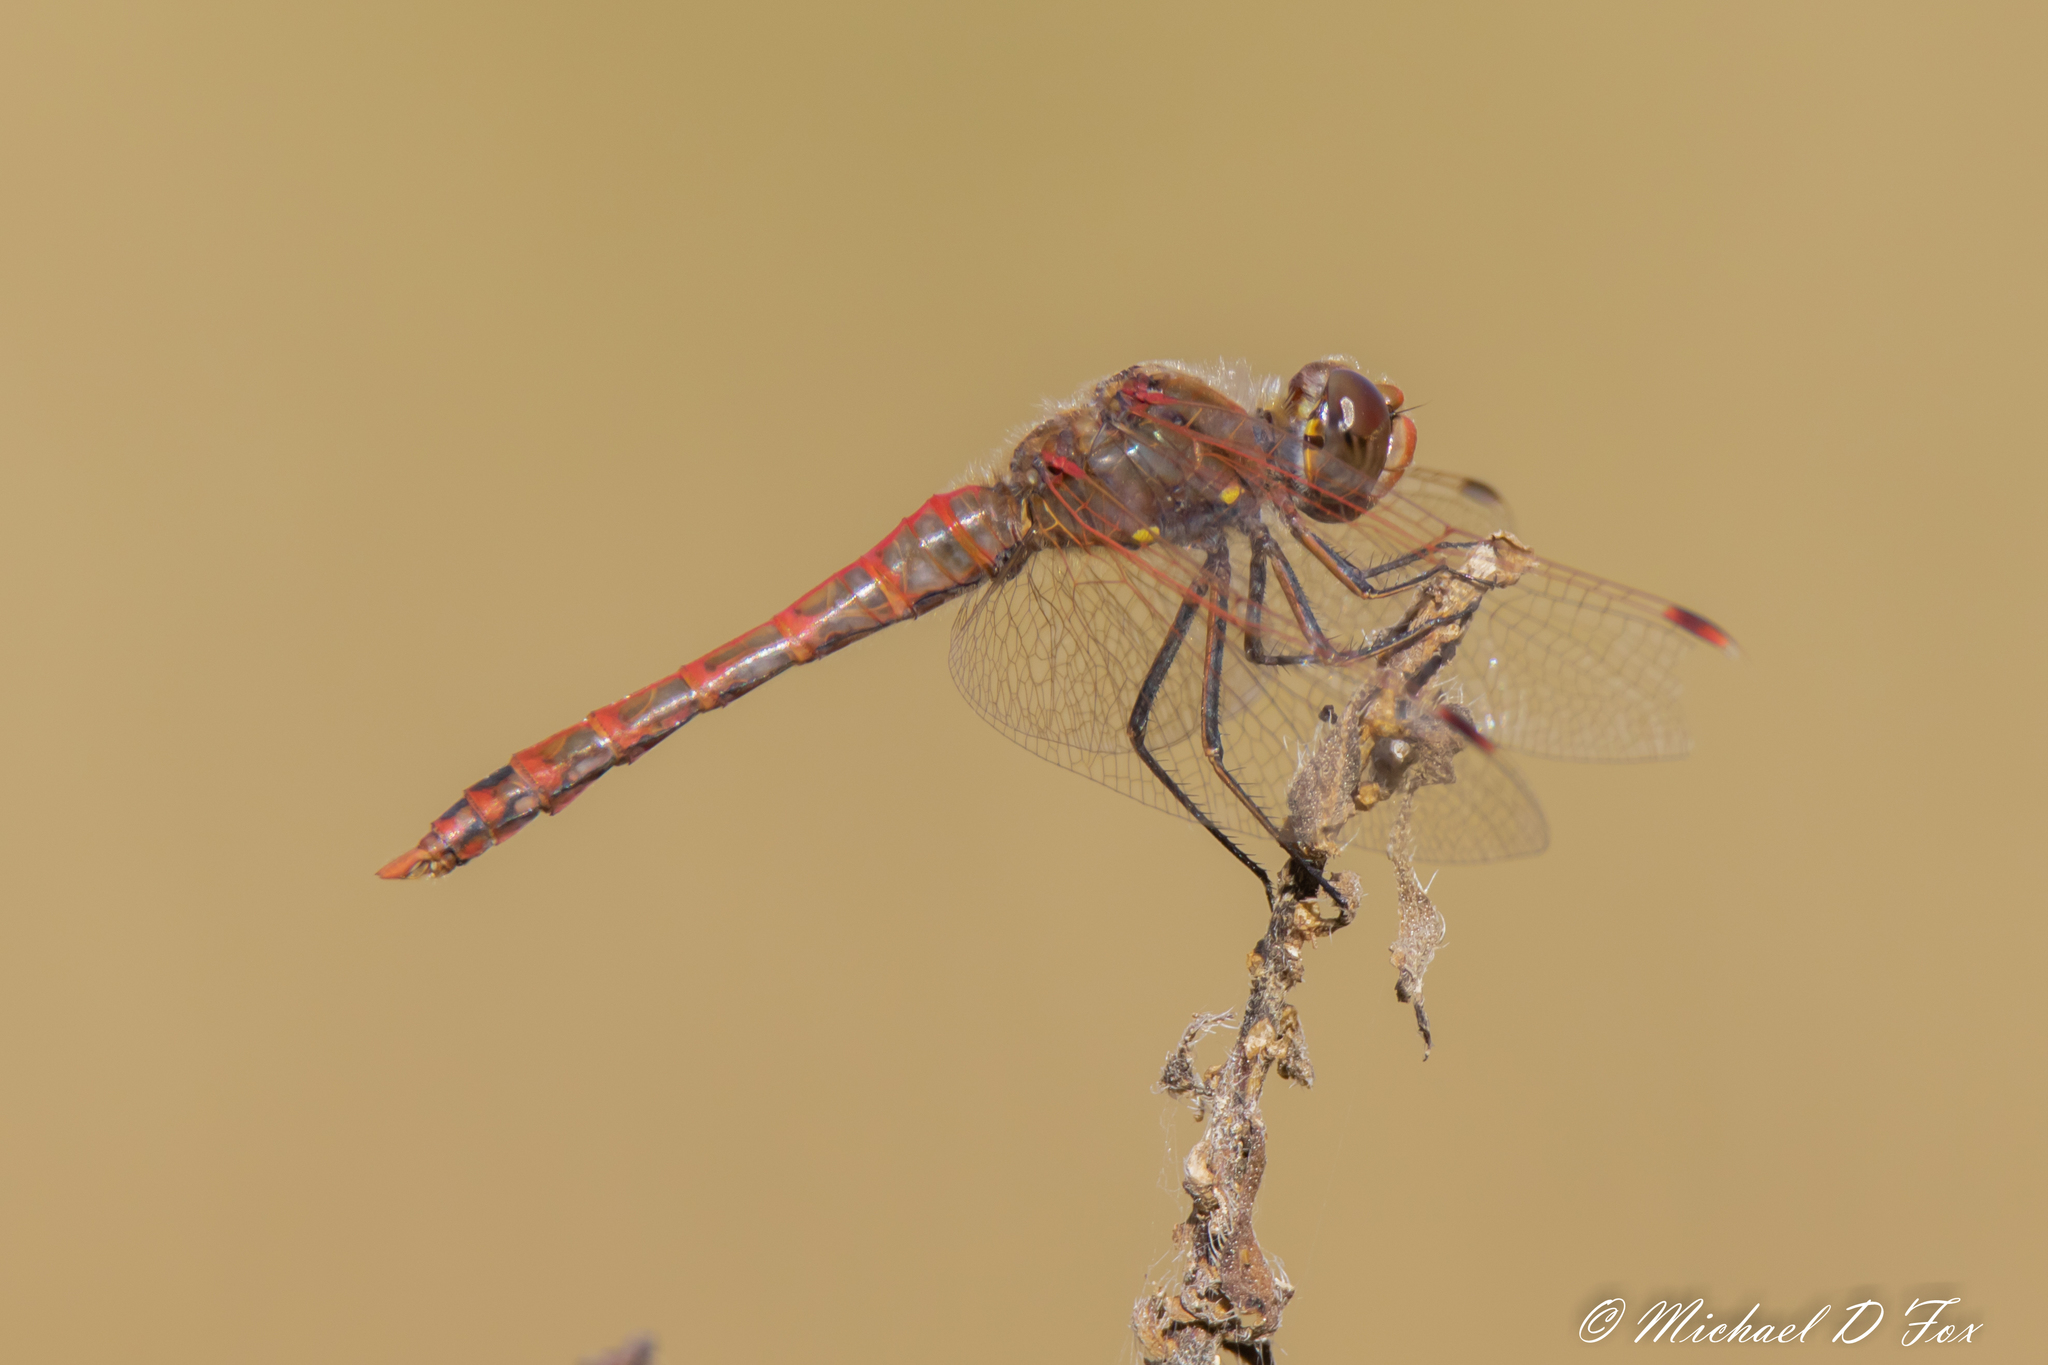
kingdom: Animalia
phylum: Arthropoda
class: Insecta
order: Odonata
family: Libellulidae
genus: Sympetrum
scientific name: Sympetrum corruptum
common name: Variegated meadowhawk
